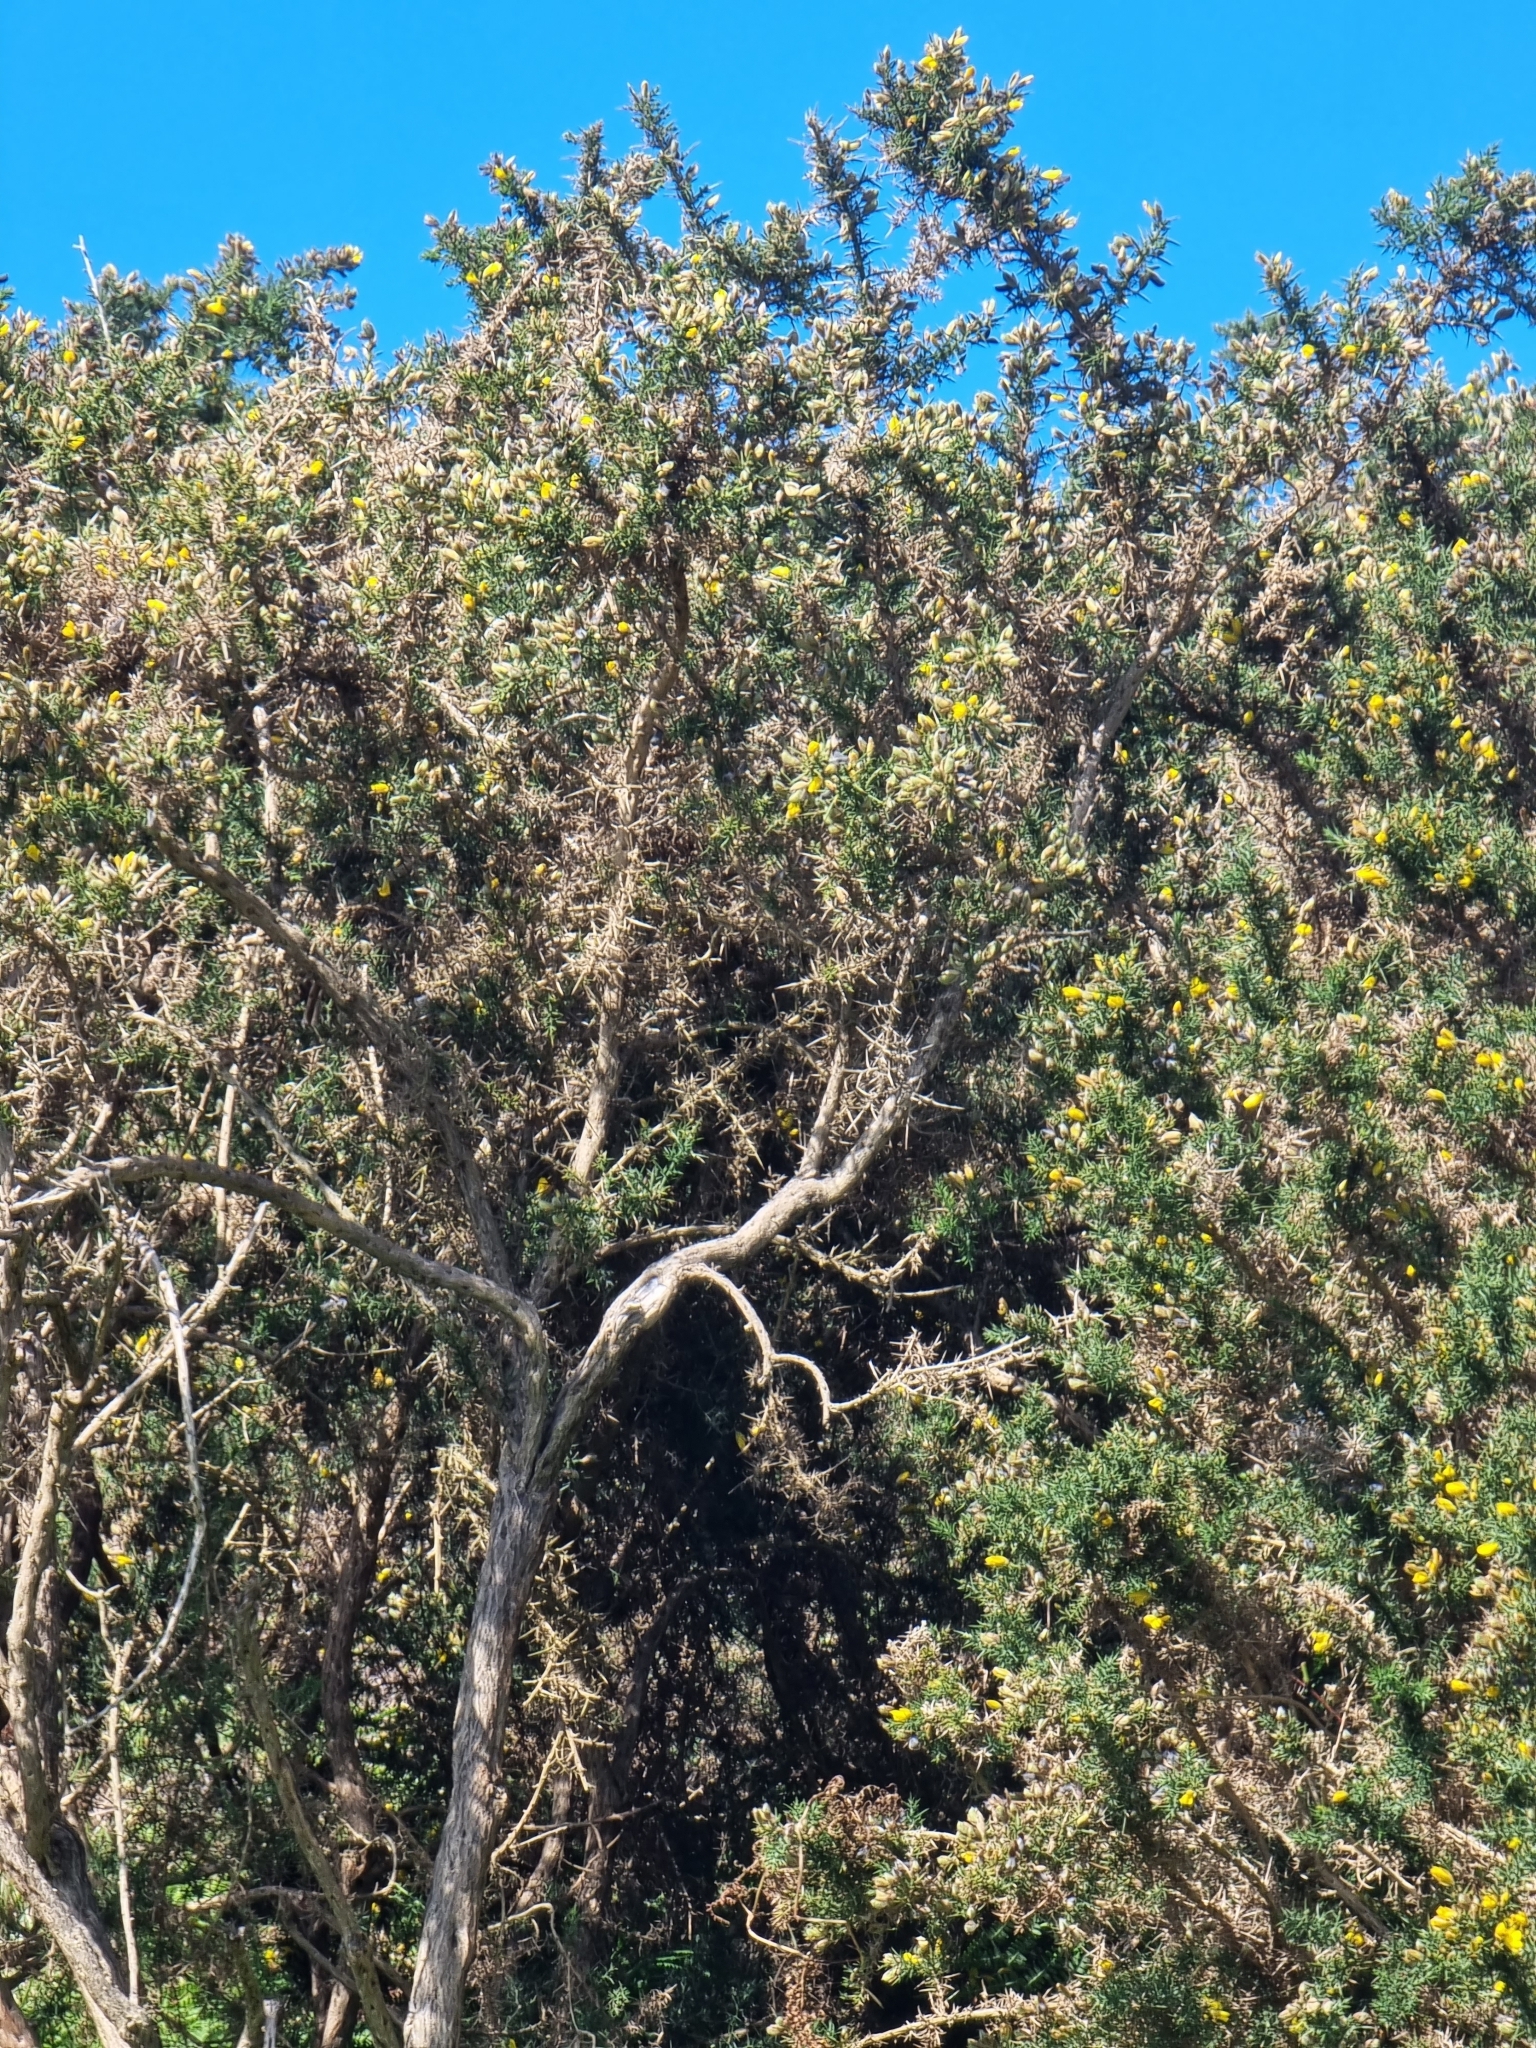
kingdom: Plantae
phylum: Tracheophyta
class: Magnoliopsida
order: Fabales
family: Fabaceae
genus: Ulex
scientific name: Ulex europaeus
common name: Common gorse
